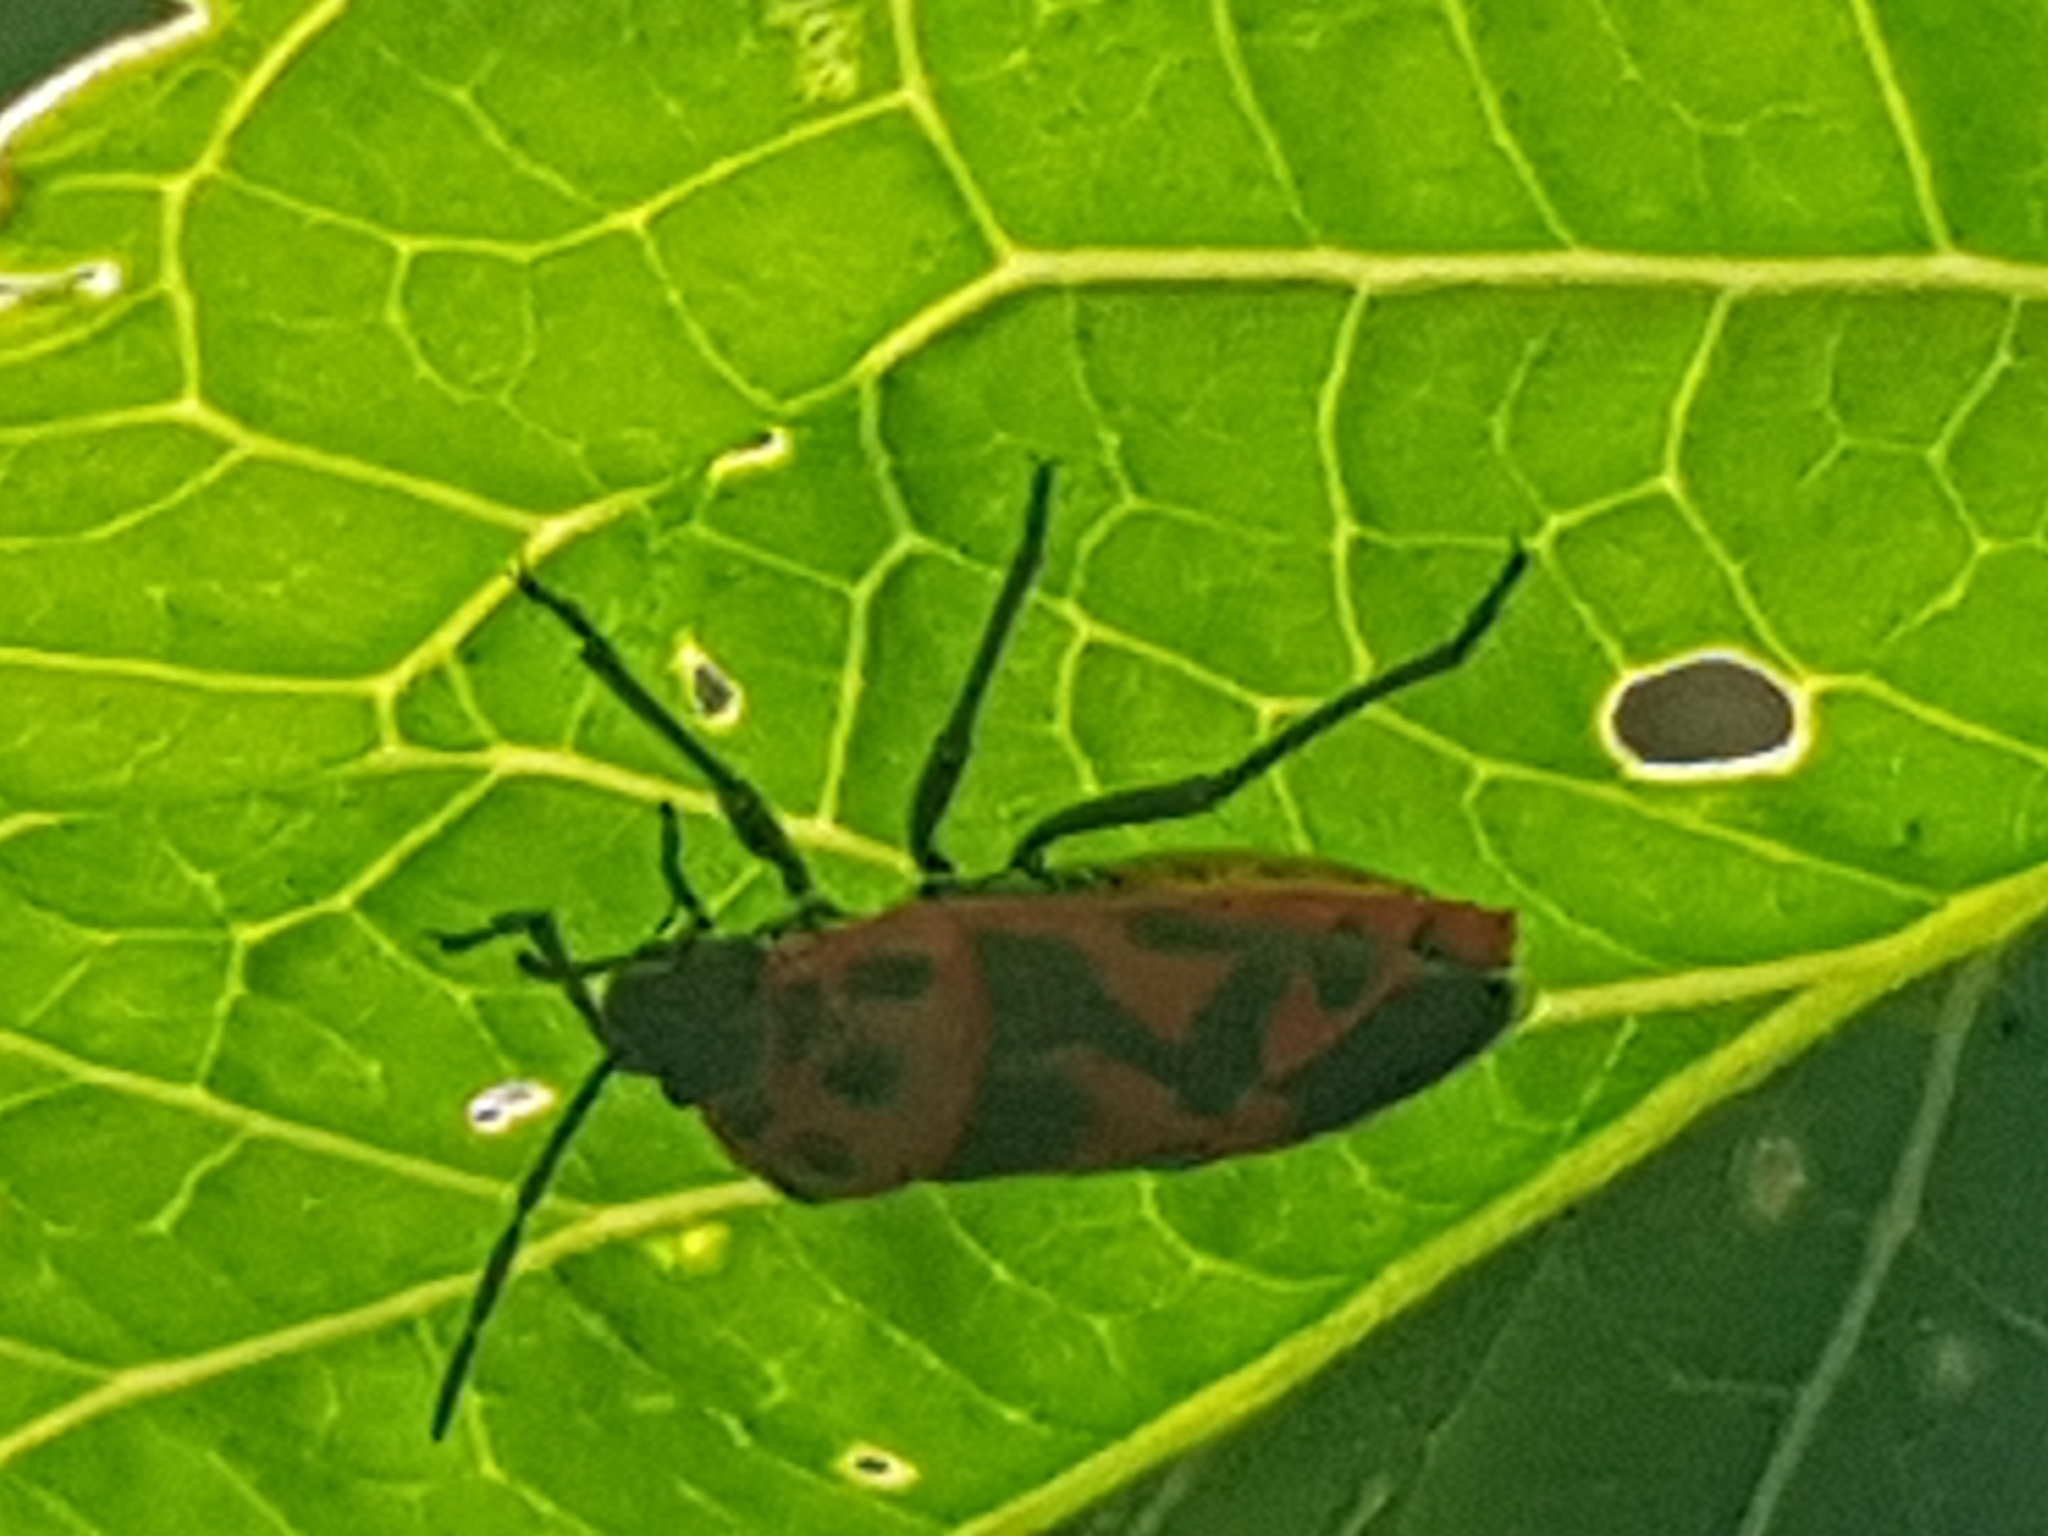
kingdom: Animalia
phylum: Arthropoda
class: Insecta
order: Hemiptera
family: Pentatomidae
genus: Eurydema
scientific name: Eurydema ornata
